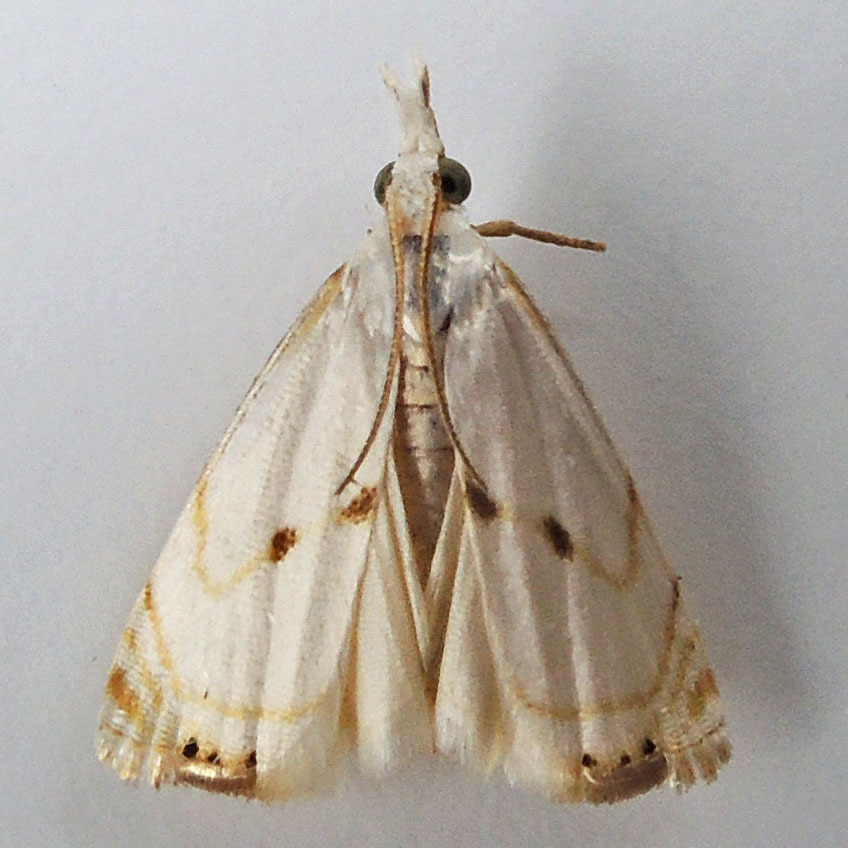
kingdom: Animalia
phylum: Arthropoda
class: Insecta
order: Lepidoptera
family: Crambidae
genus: Microcrambus
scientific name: Microcrambus biguttellus
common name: Gold-stripe grass-veneer moth
